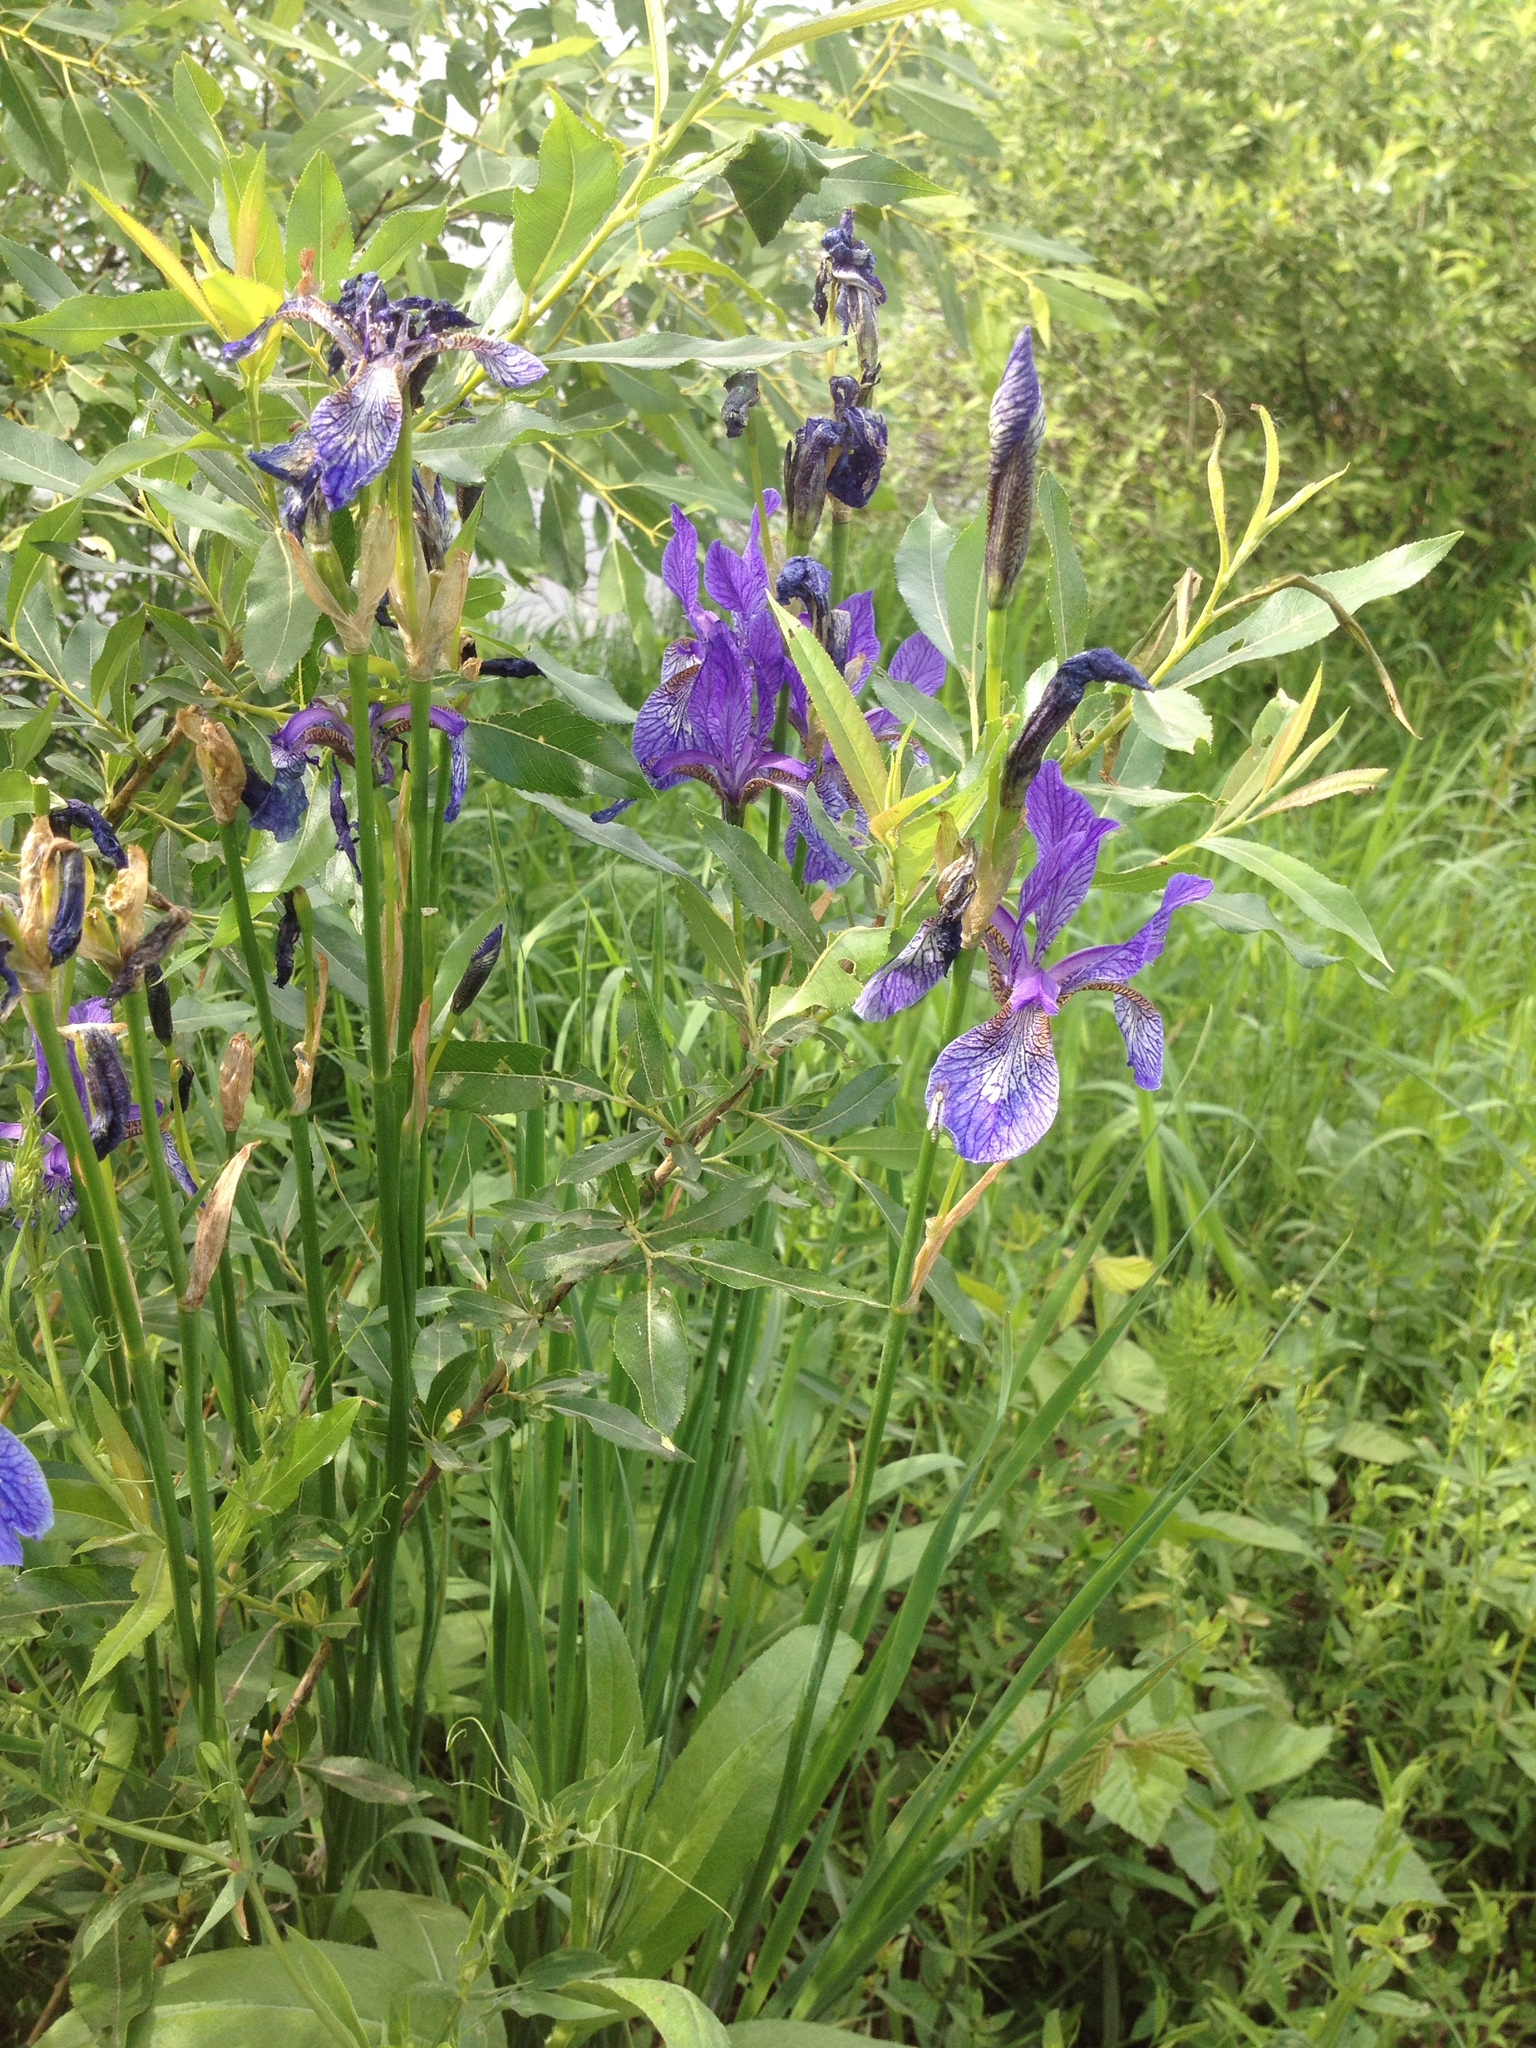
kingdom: Plantae
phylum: Tracheophyta
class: Liliopsida
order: Asparagales
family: Iridaceae
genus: Iris
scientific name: Iris sibirica
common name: Siberian iris
